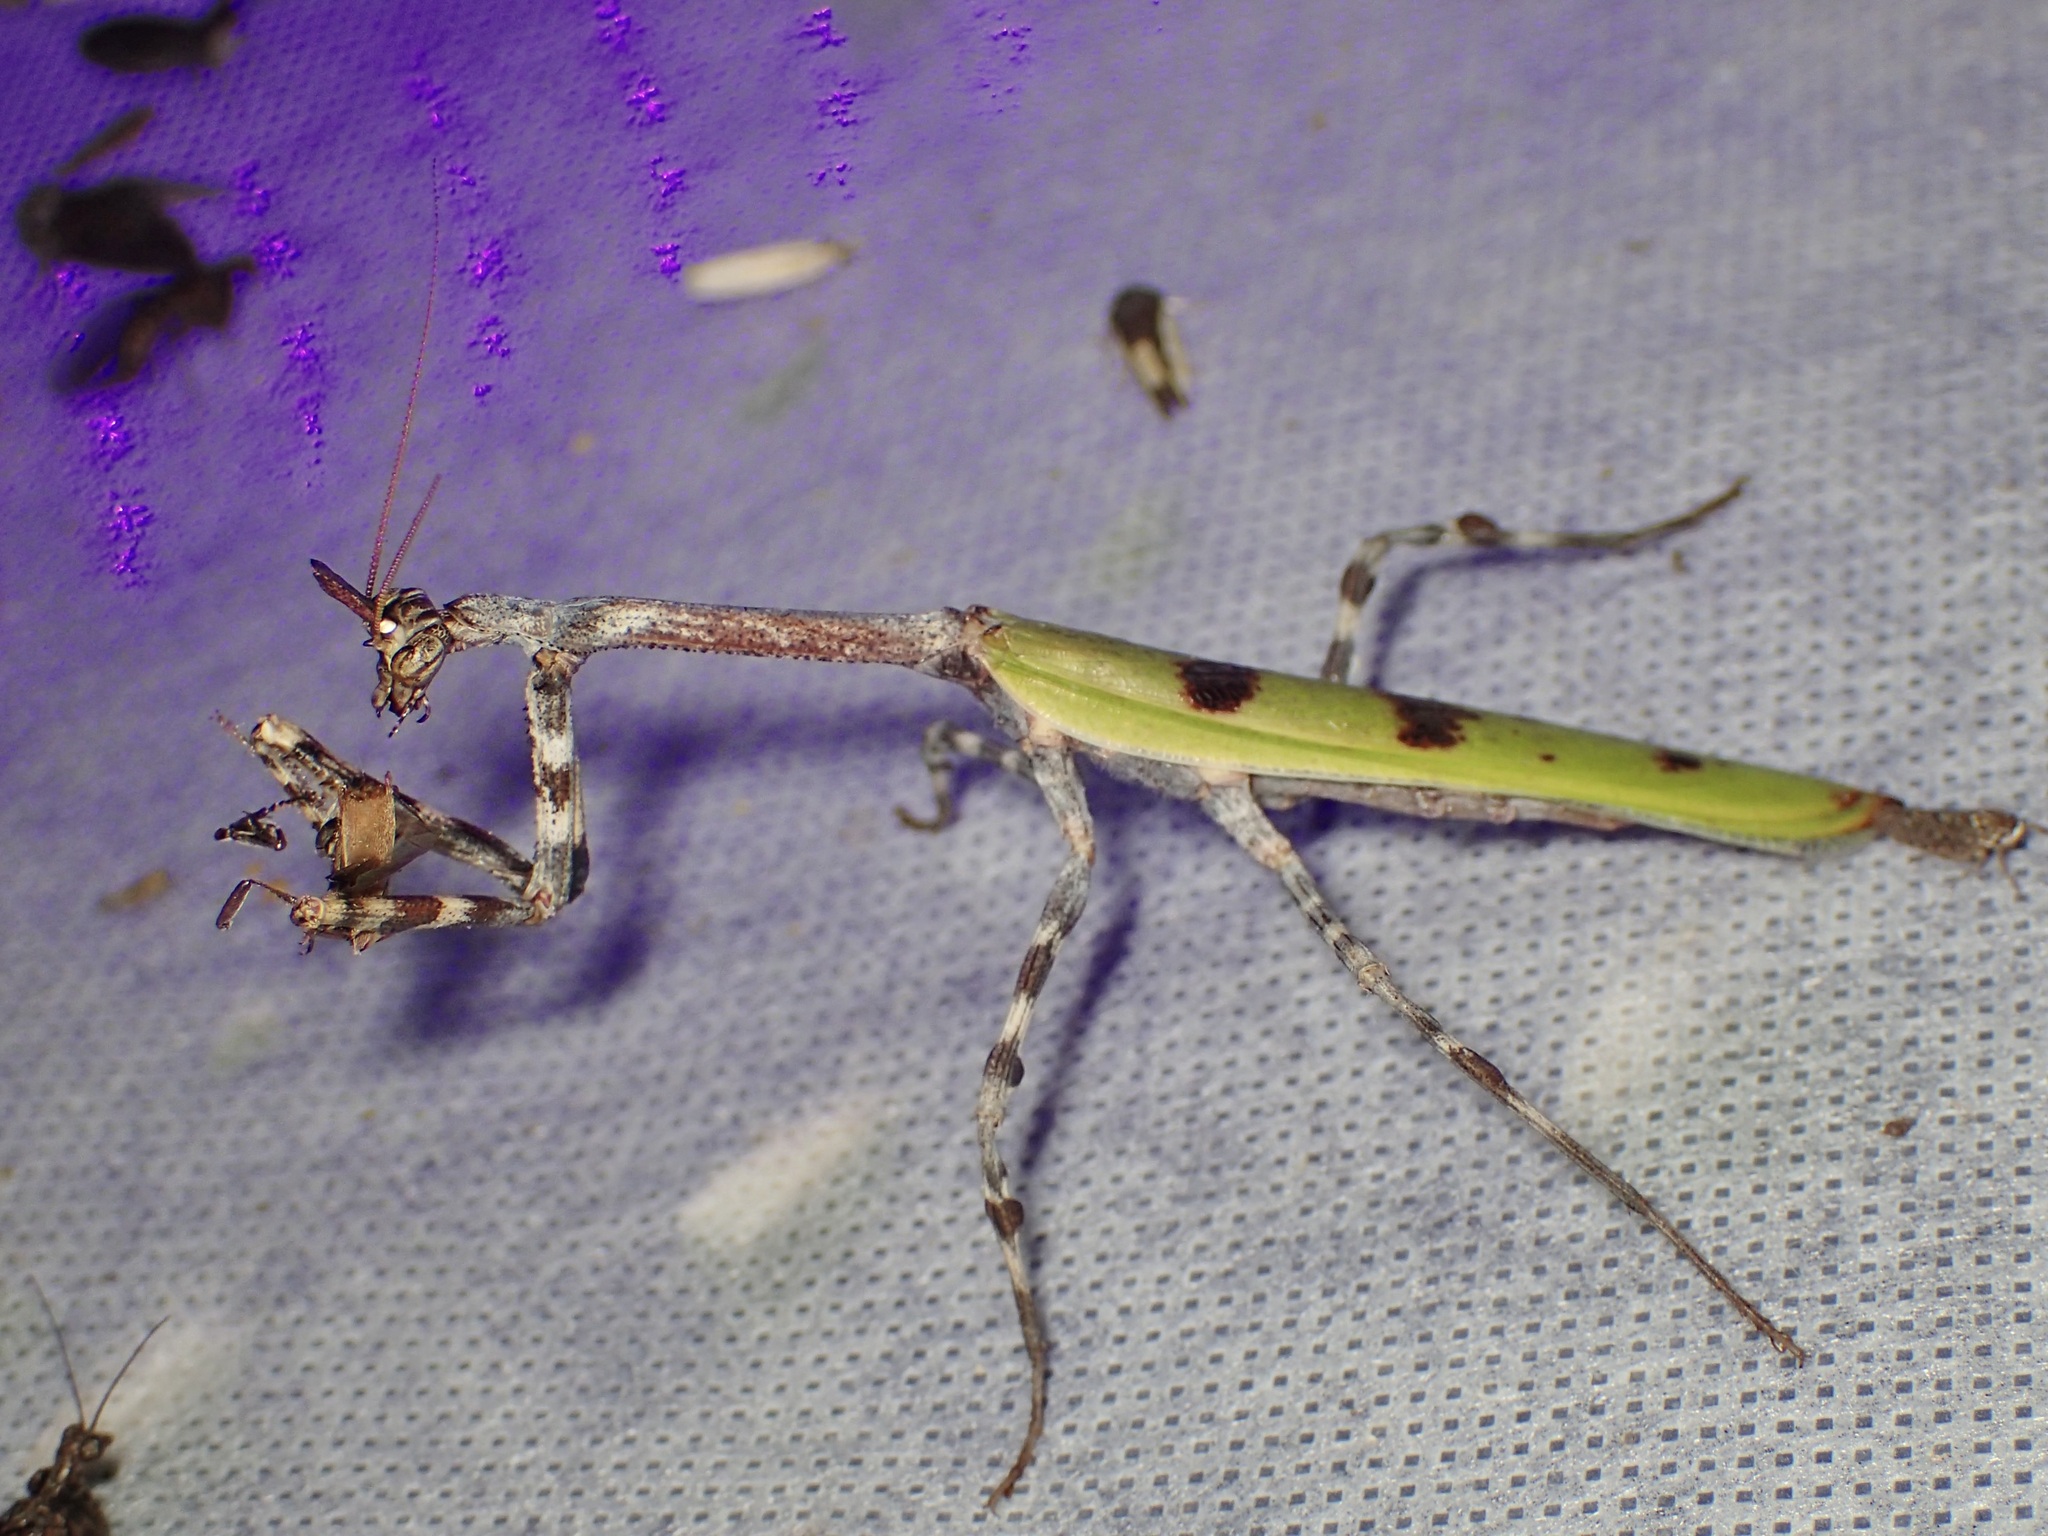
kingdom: Animalia
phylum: Arthropoda
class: Insecta
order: Mantodea
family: Mantidae
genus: Pseudovates
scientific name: Pseudovates arizonae
